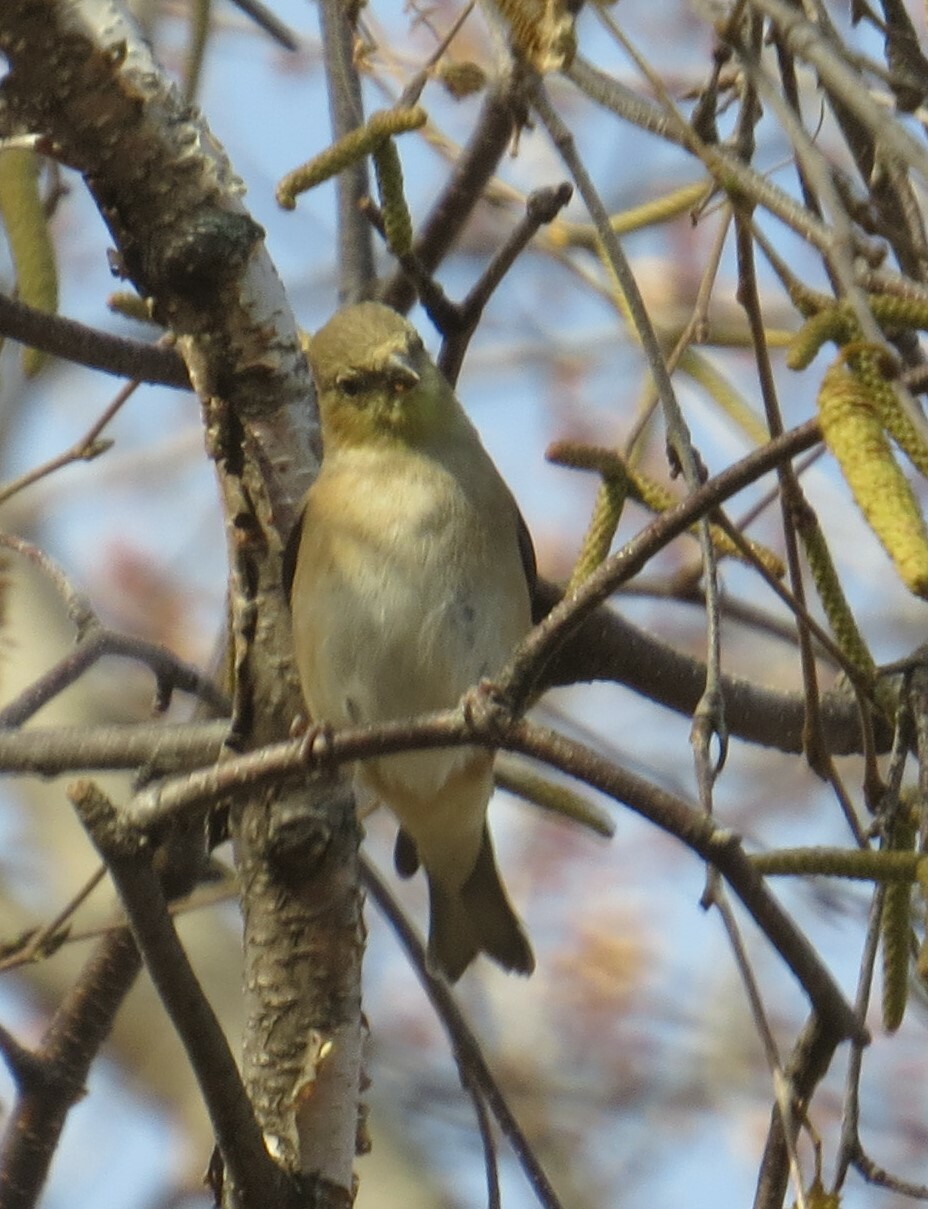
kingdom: Animalia
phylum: Chordata
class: Aves
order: Passeriformes
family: Fringillidae
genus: Spinus
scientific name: Spinus tristis
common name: American goldfinch
